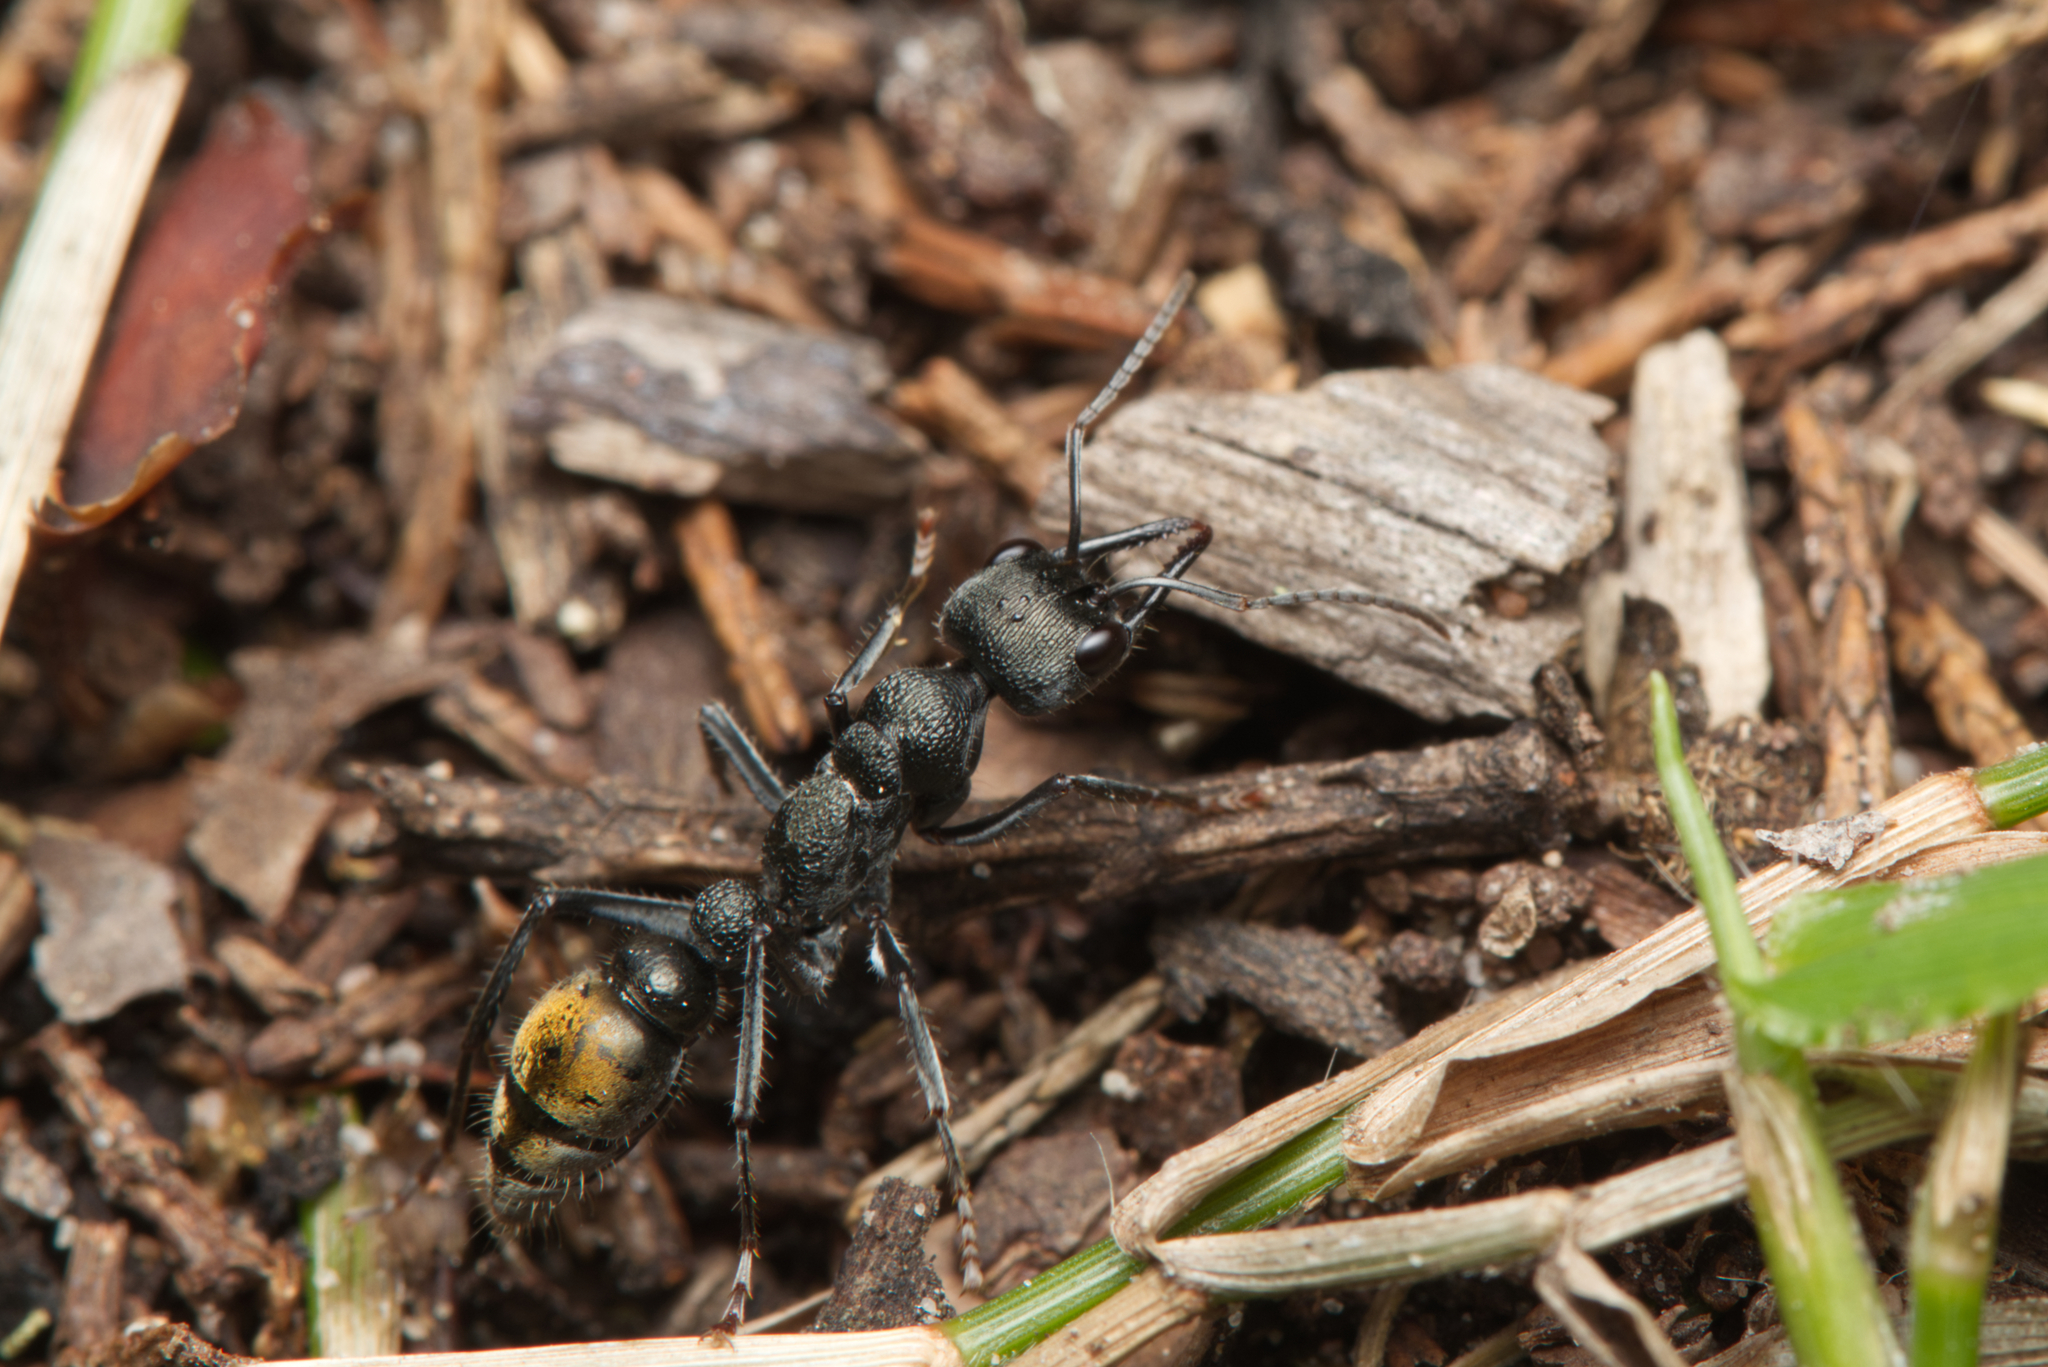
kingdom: Animalia
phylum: Arthropoda
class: Insecta
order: Hymenoptera
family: Formicidae
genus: Myrmecia
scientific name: Myrmecia gilberti
